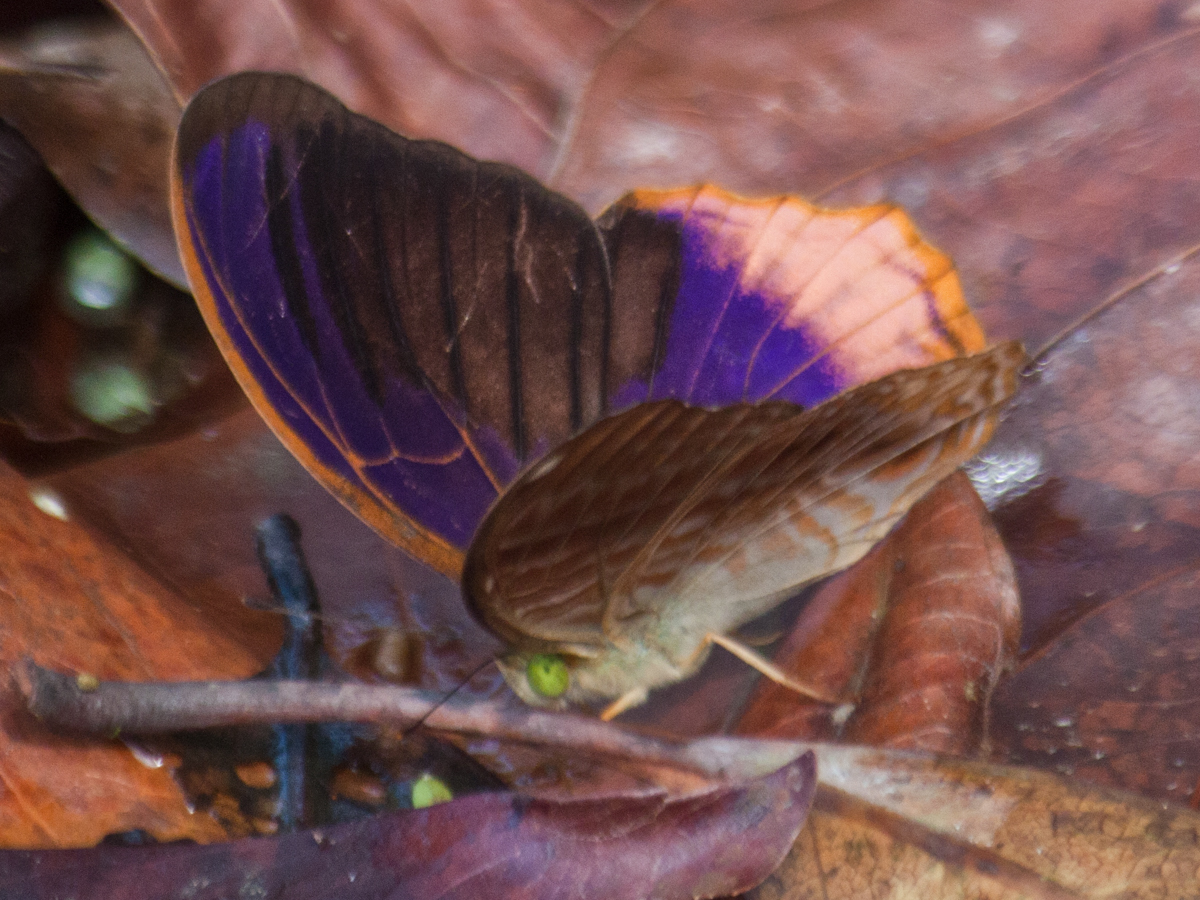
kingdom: Animalia
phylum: Arthropoda
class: Insecta
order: Lepidoptera
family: Nymphalidae
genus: Terinos
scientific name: Terinos terpander
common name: Royal assyrian
